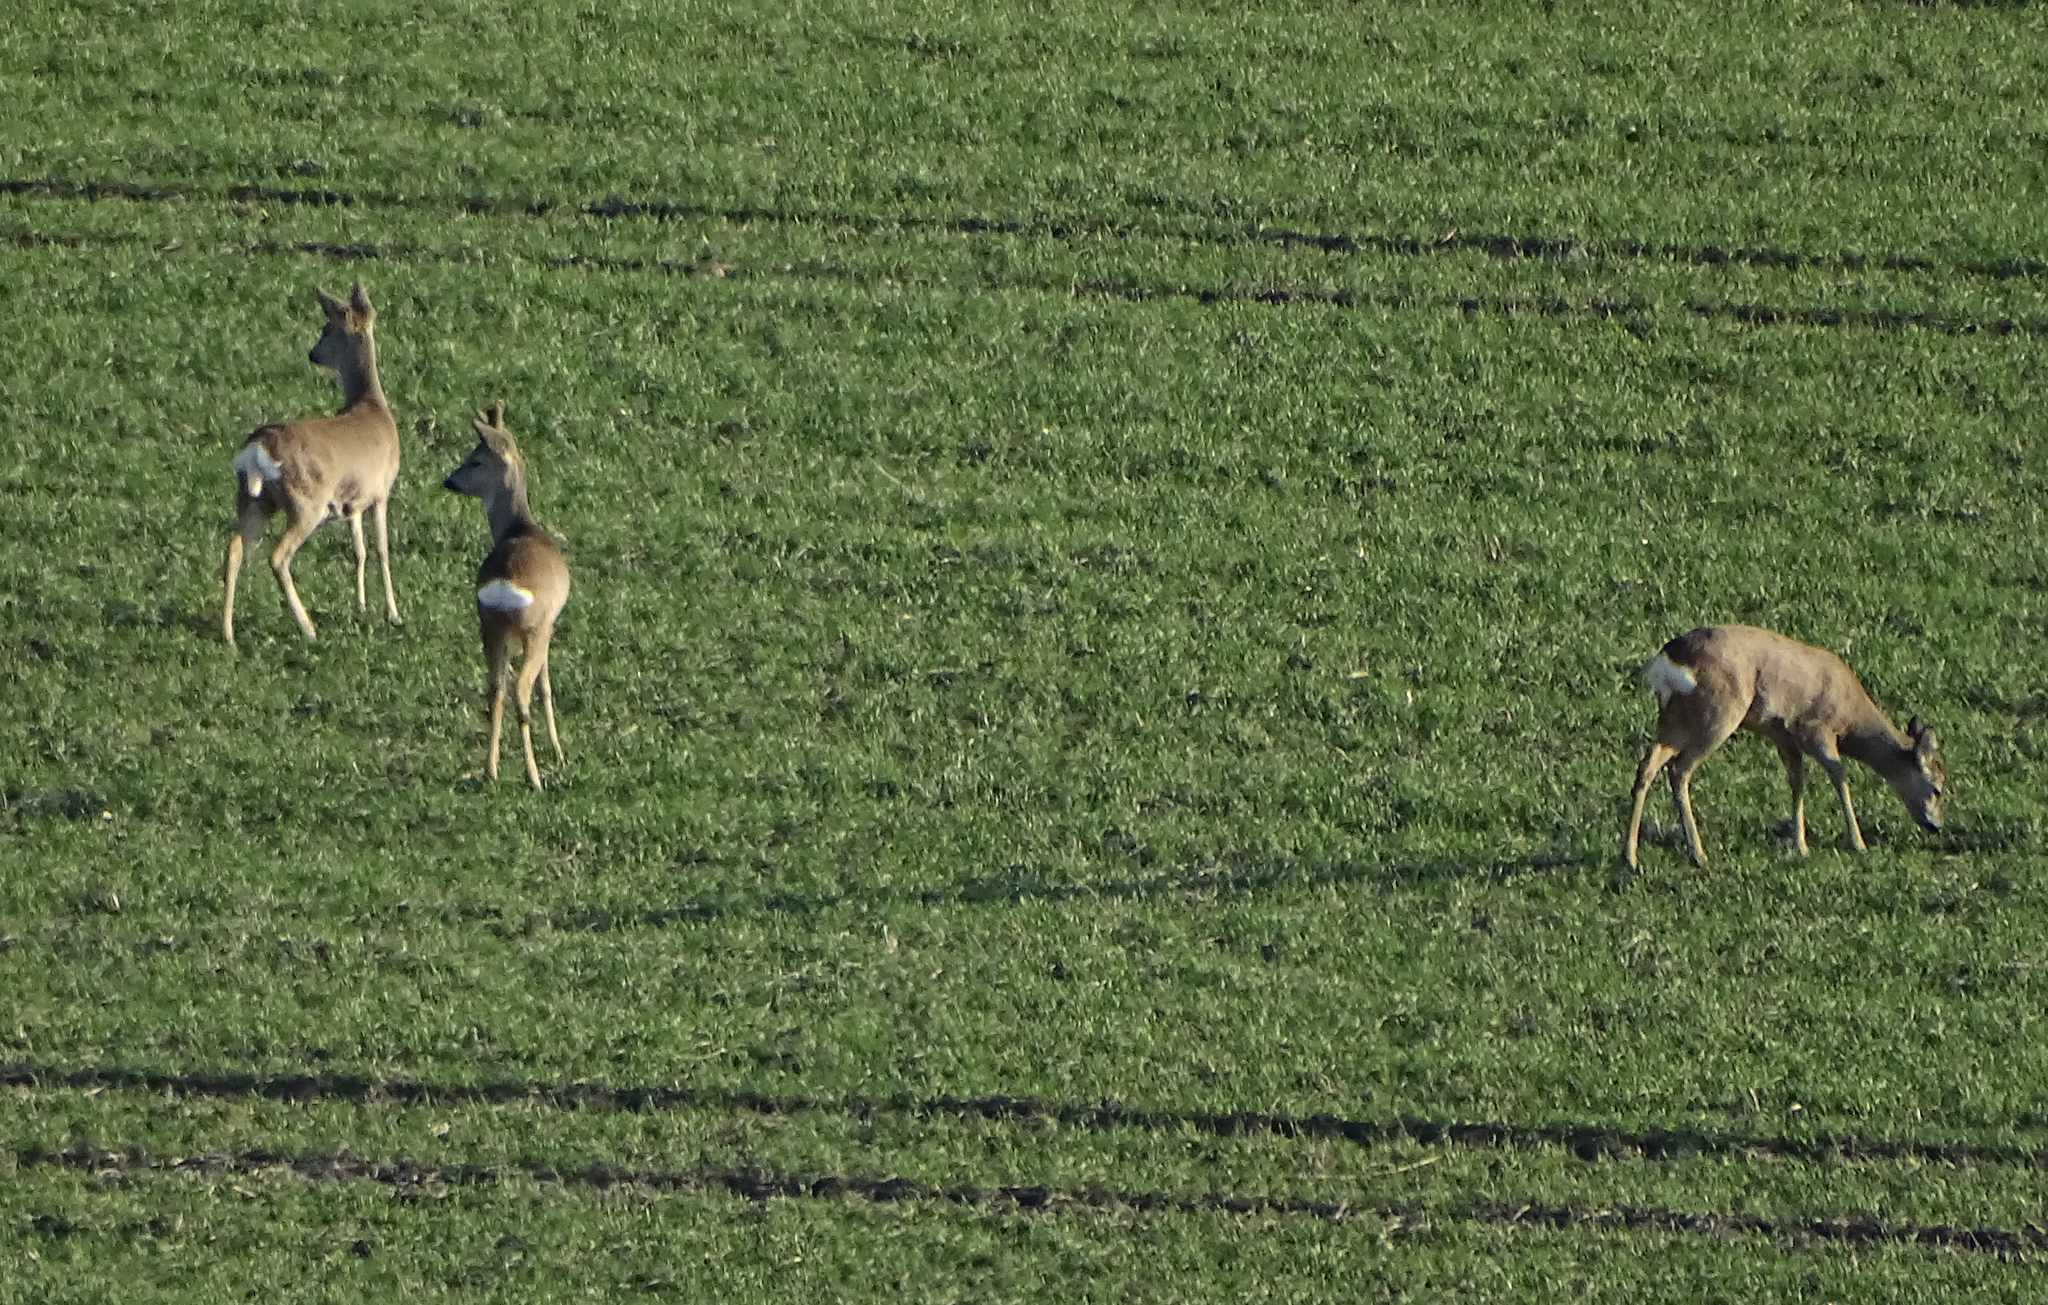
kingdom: Animalia
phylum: Chordata
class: Mammalia
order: Artiodactyla
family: Cervidae
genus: Capreolus
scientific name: Capreolus capreolus
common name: Western roe deer
